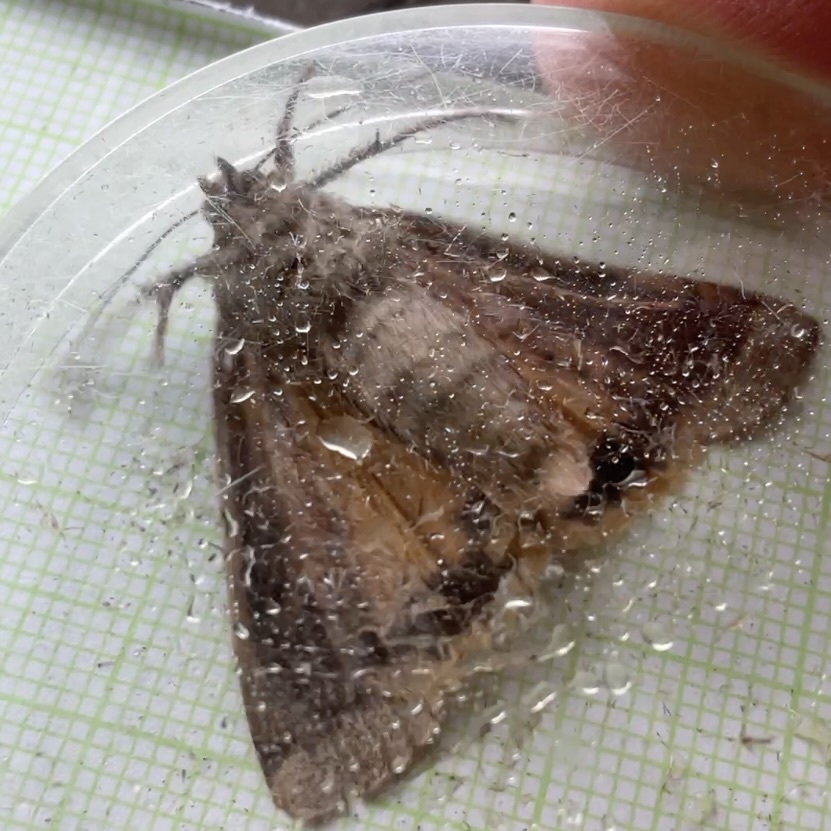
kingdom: Animalia
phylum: Arthropoda
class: Insecta
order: Lepidoptera
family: Noctuidae
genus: Noctua
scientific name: Noctua pronuba
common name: Large yellow underwing
